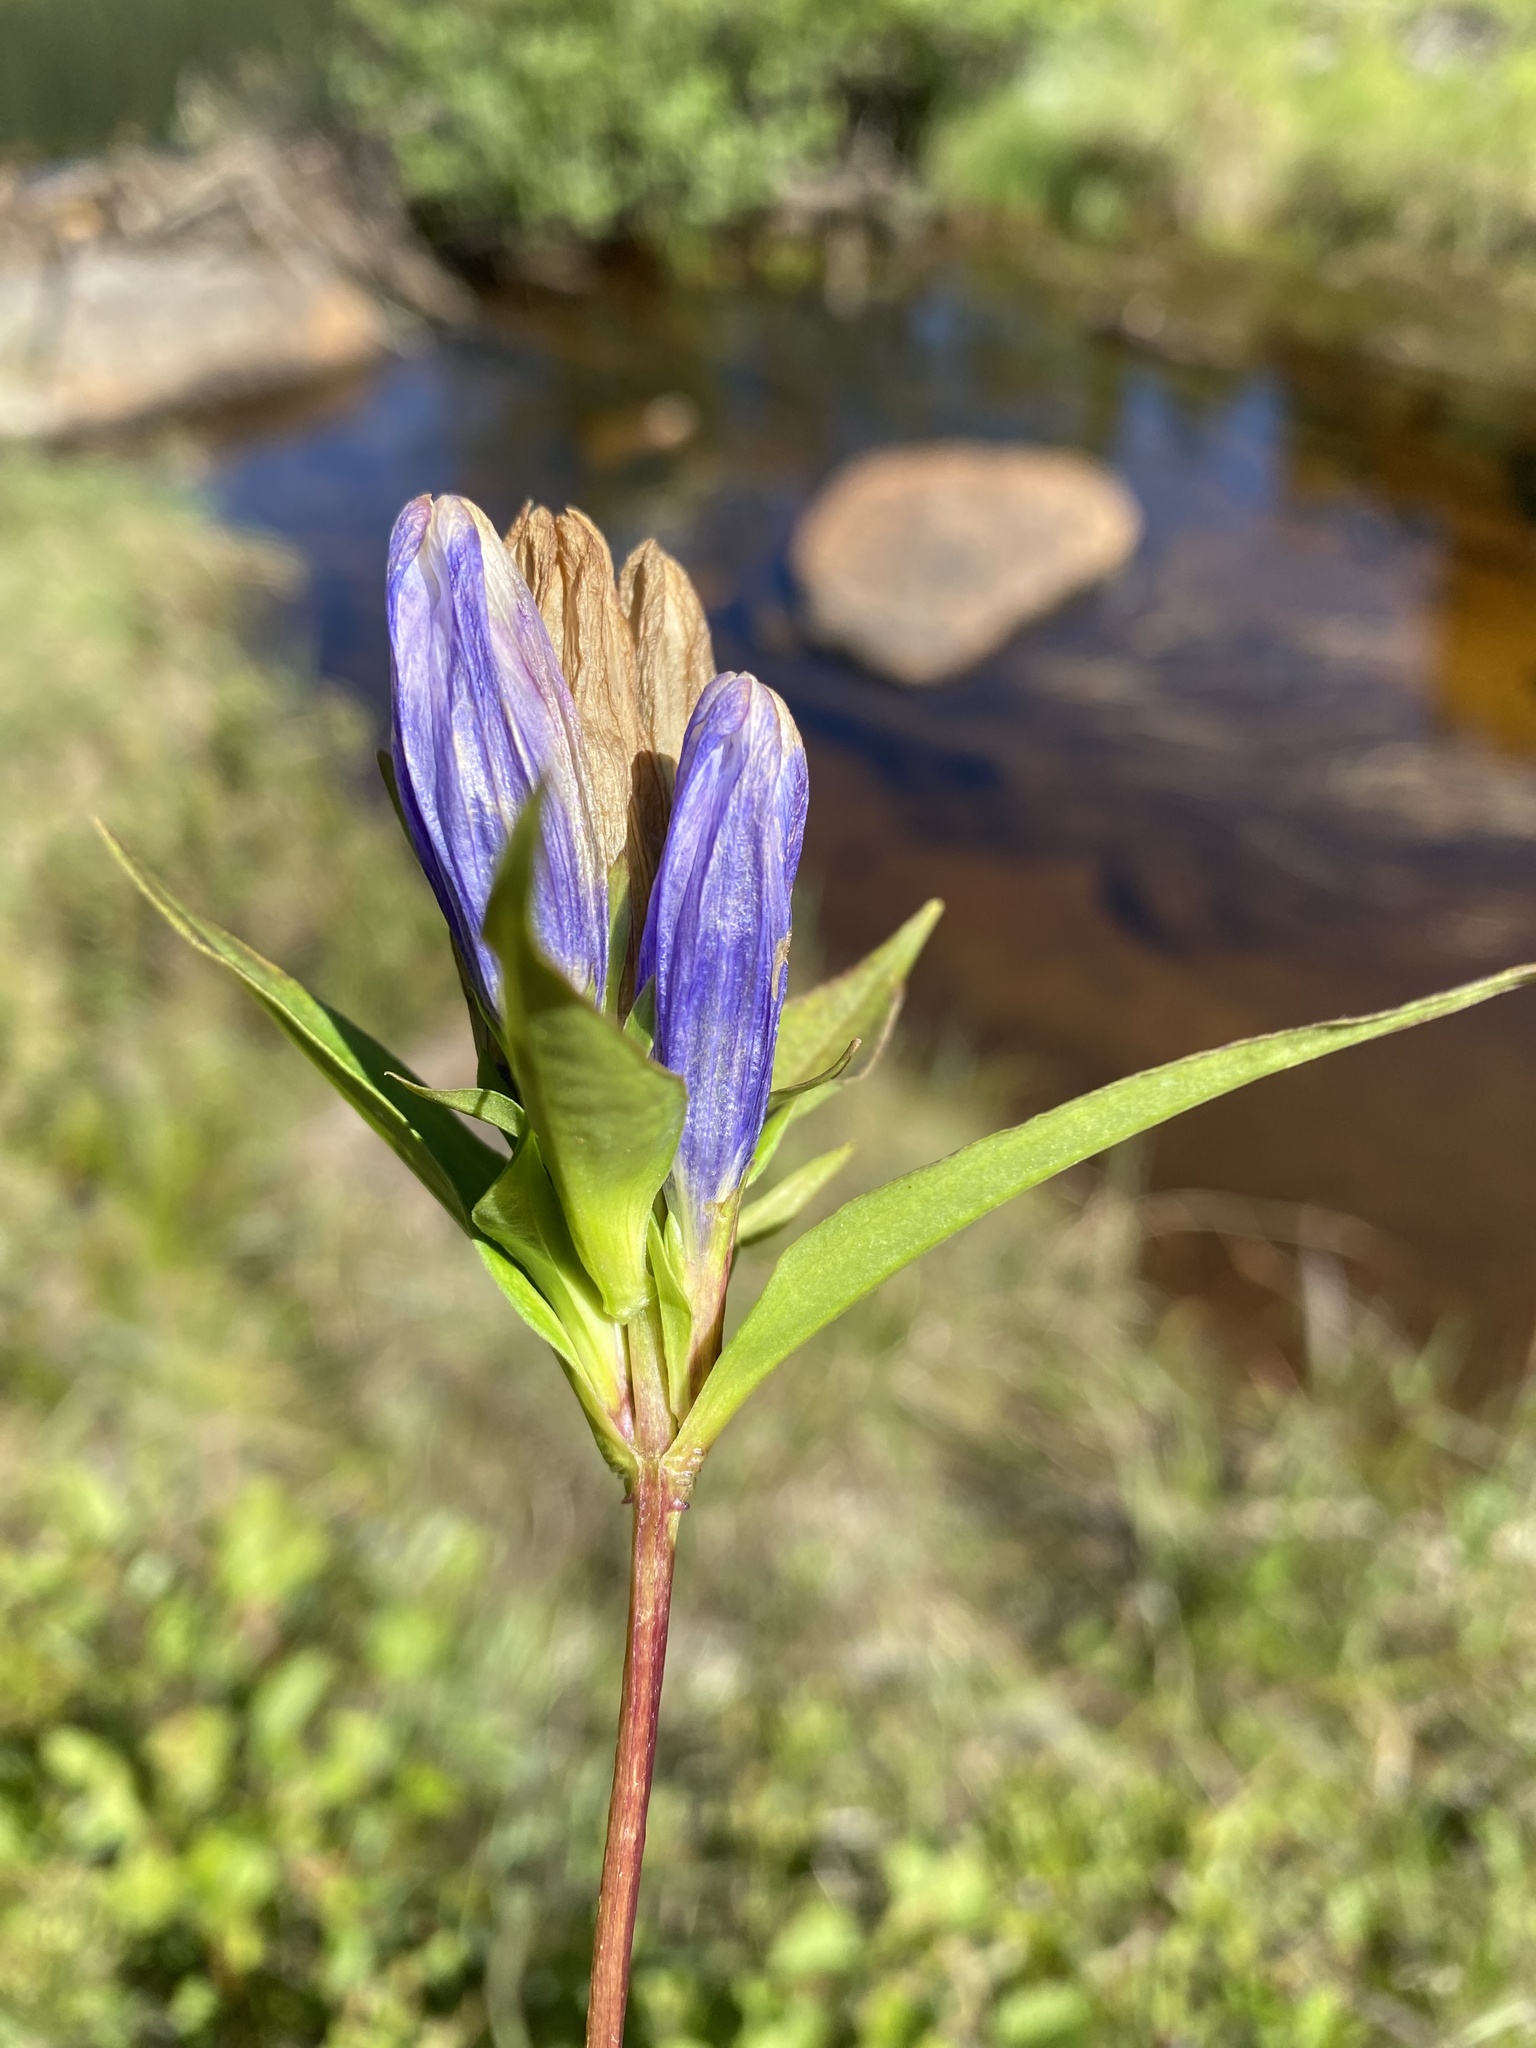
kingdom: Plantae
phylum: Tracheophyta
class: Magnoliopsida
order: Gentianales
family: Gentianaceae
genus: Gentiana
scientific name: Gentiana linearis
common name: Bastard gentian
